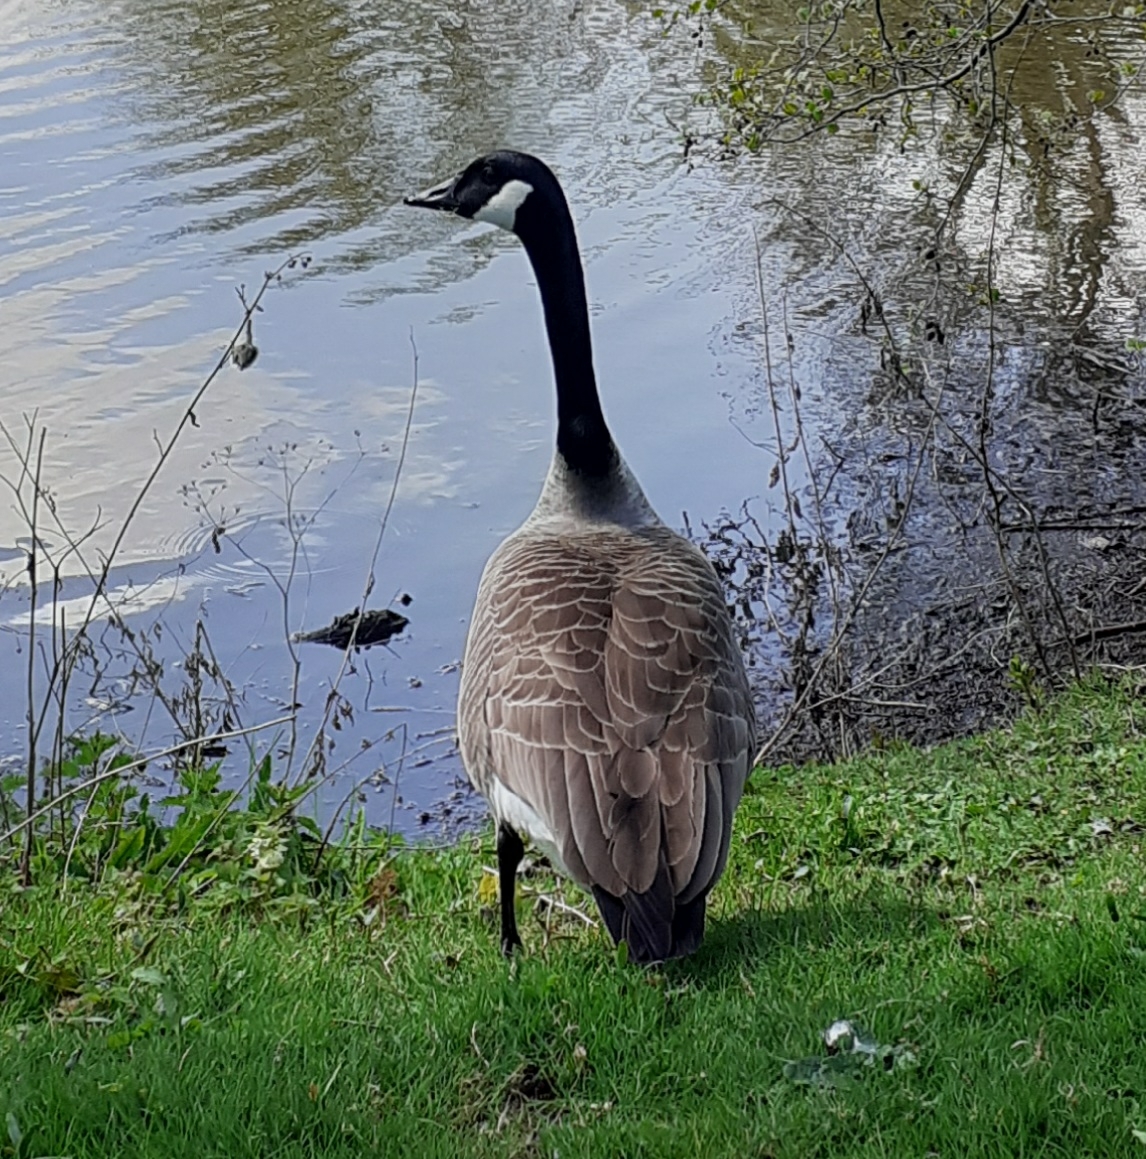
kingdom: Animalia
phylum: Chordata
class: Aves
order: Anseriformes
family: Anatidae
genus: Branta
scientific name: Branta canadensis
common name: Canada goose
